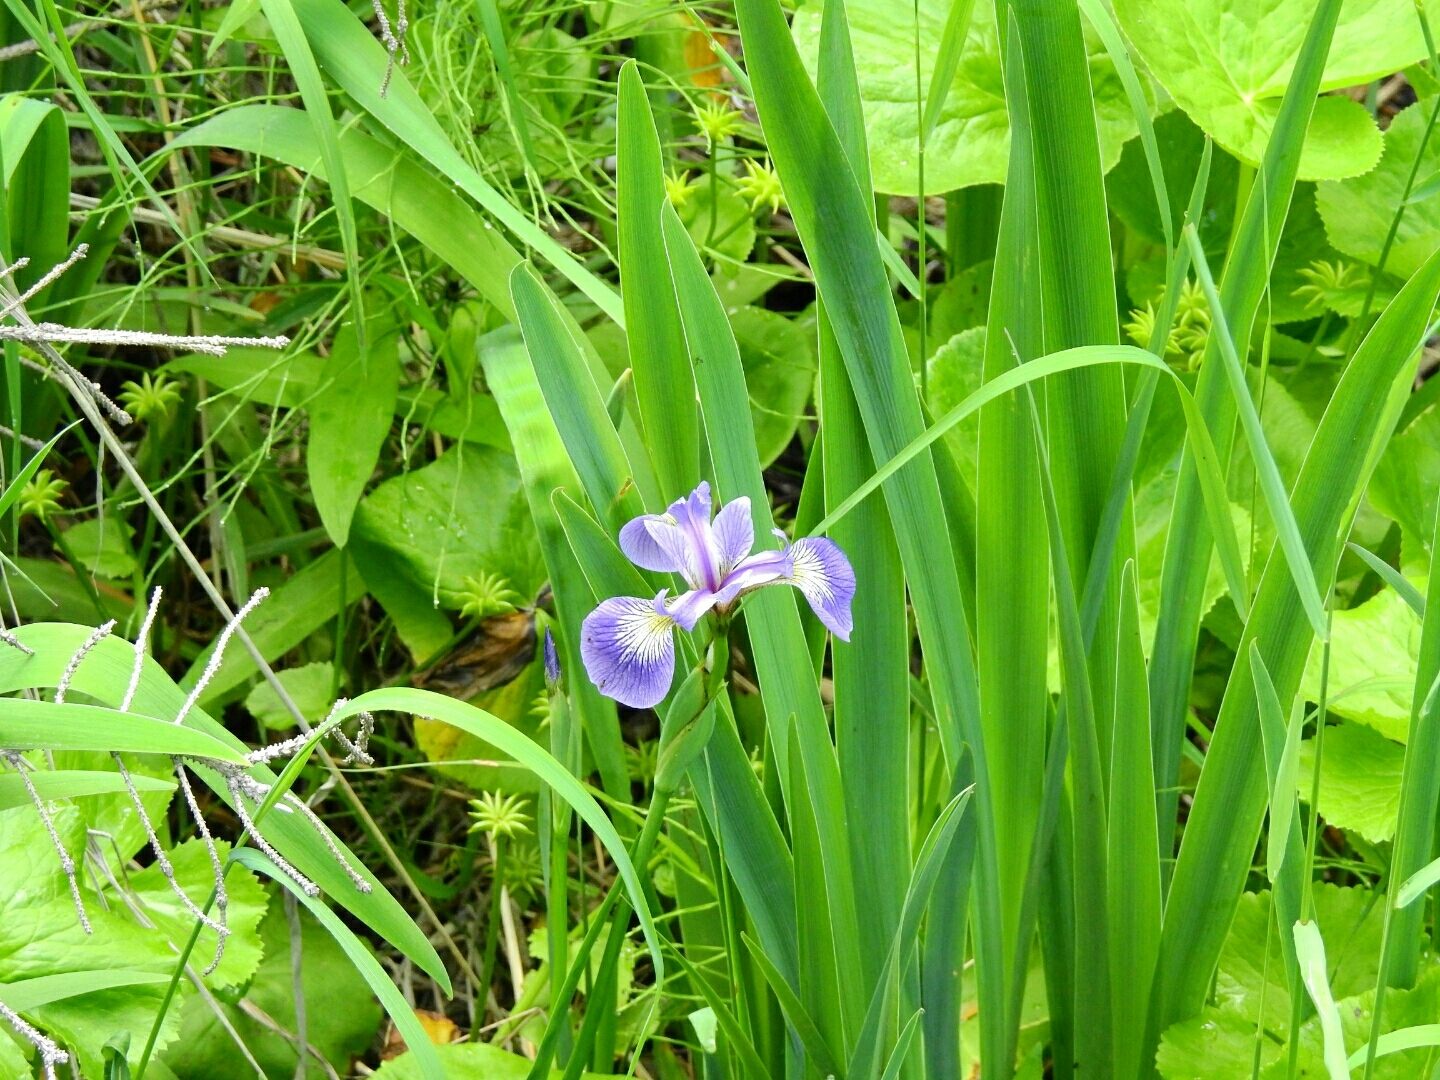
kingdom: Plantae
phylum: Tracheophyta
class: Liliopsida
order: Asparagales
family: Iridaceae
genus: Iris
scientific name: Iris versicolor
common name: Purple iris
